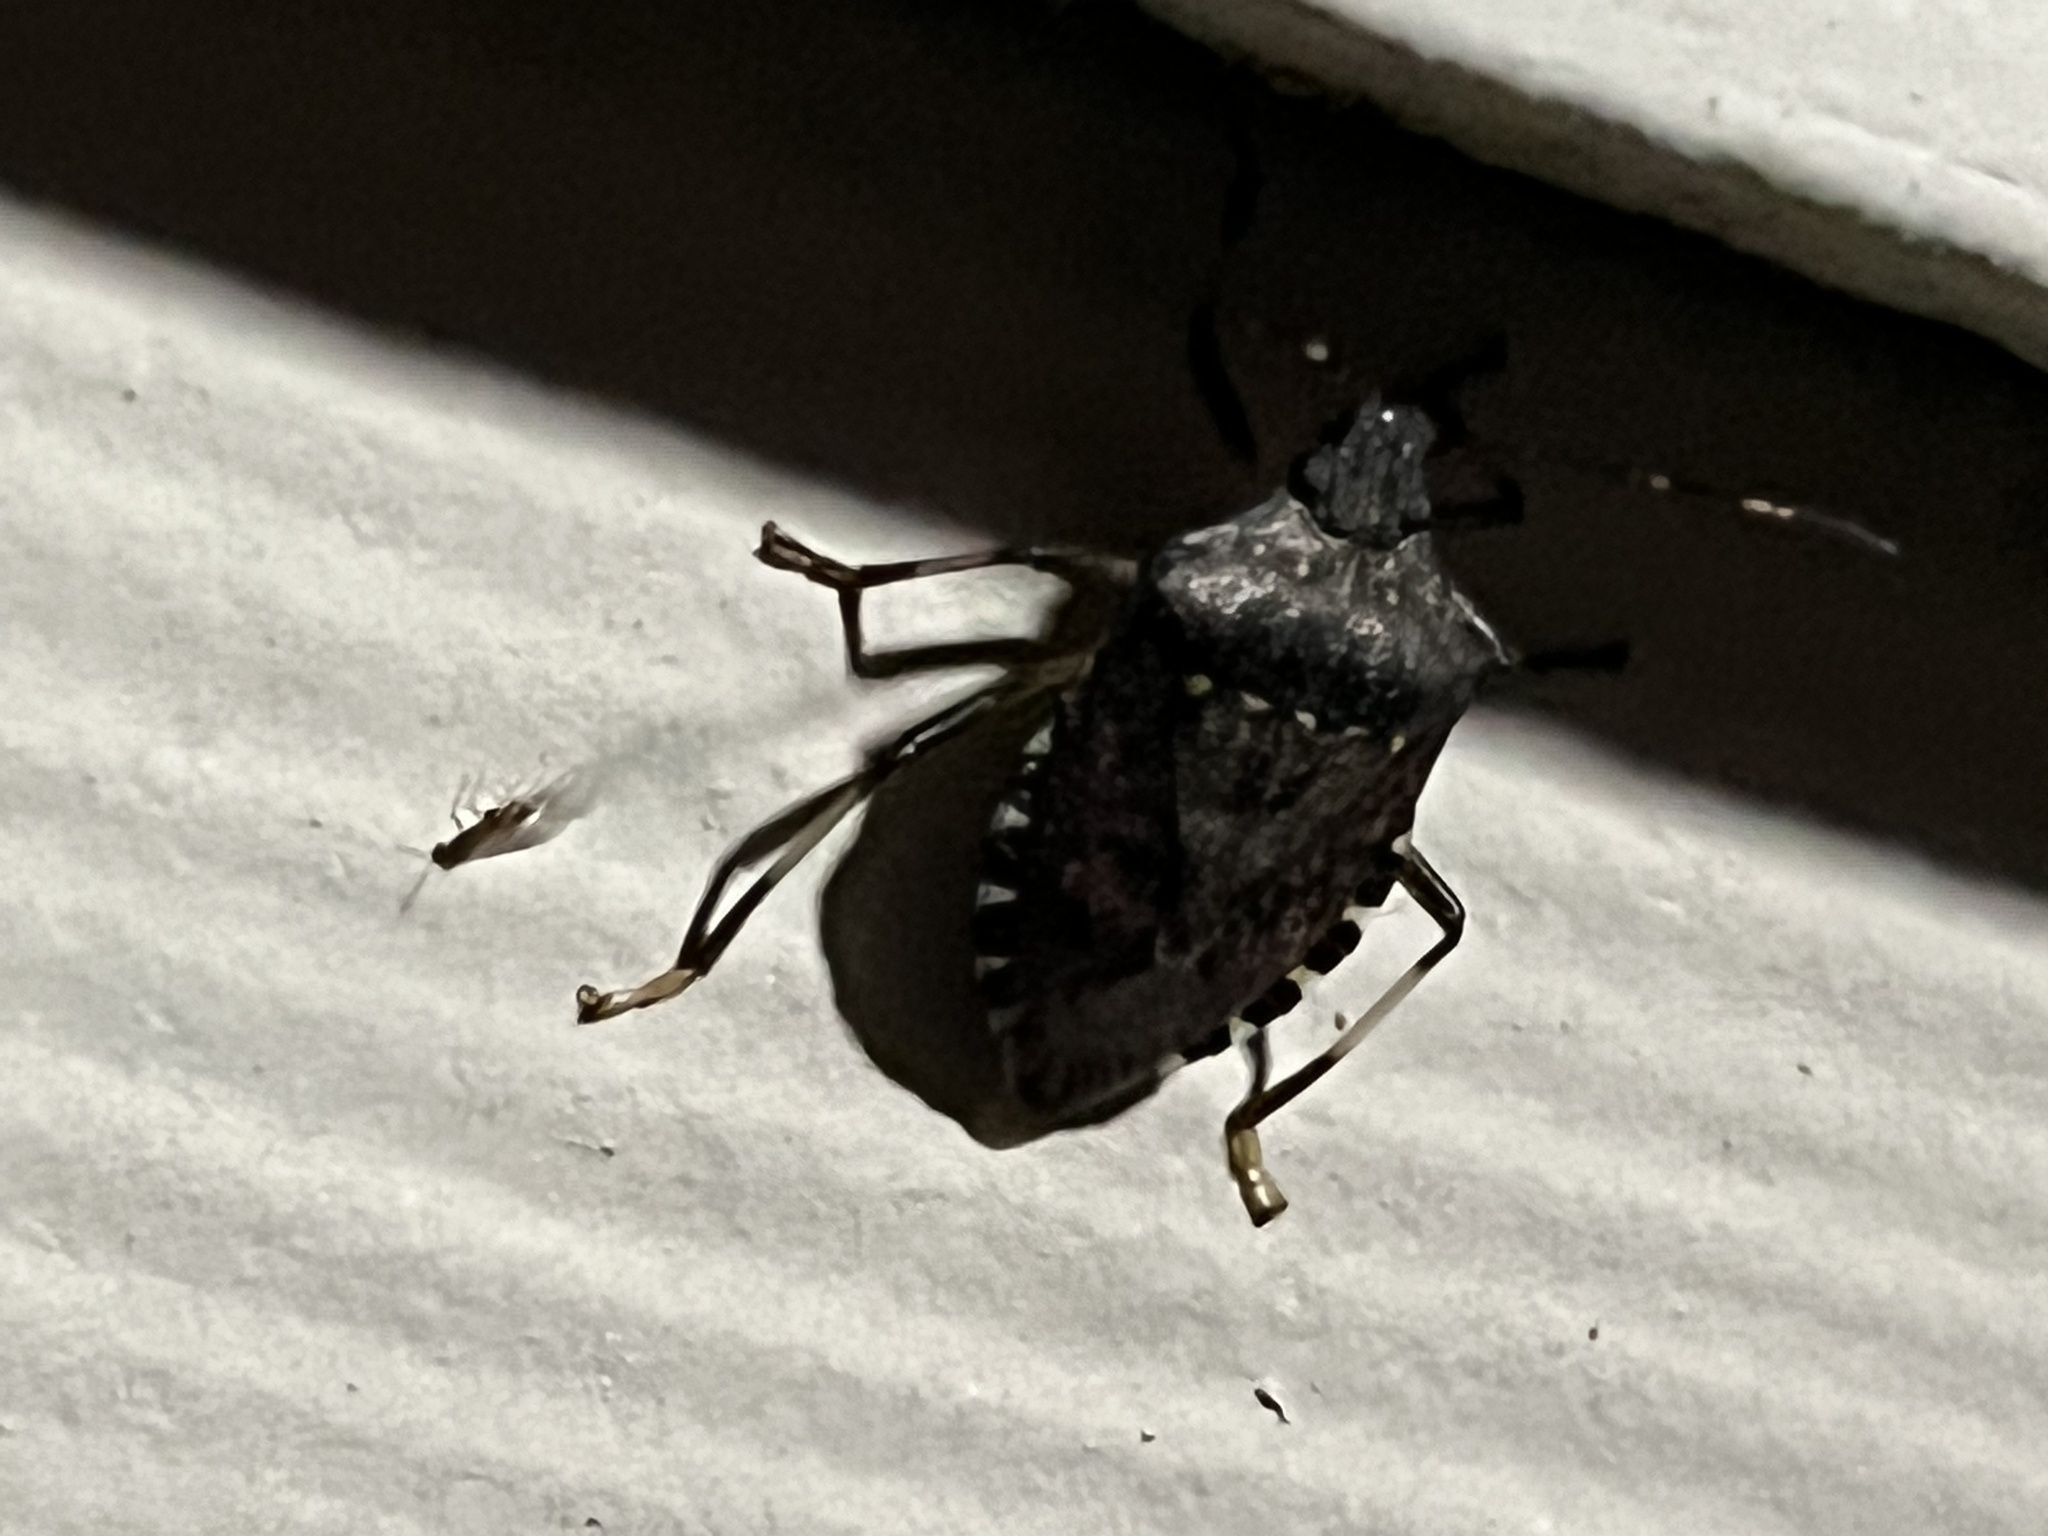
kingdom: Animalia
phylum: Arthropoda
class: Insecta
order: Hemiptera
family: Pentatomidae
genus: Halyomorpha
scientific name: Halyomorpha halys
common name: Brown marmorated stink bug
